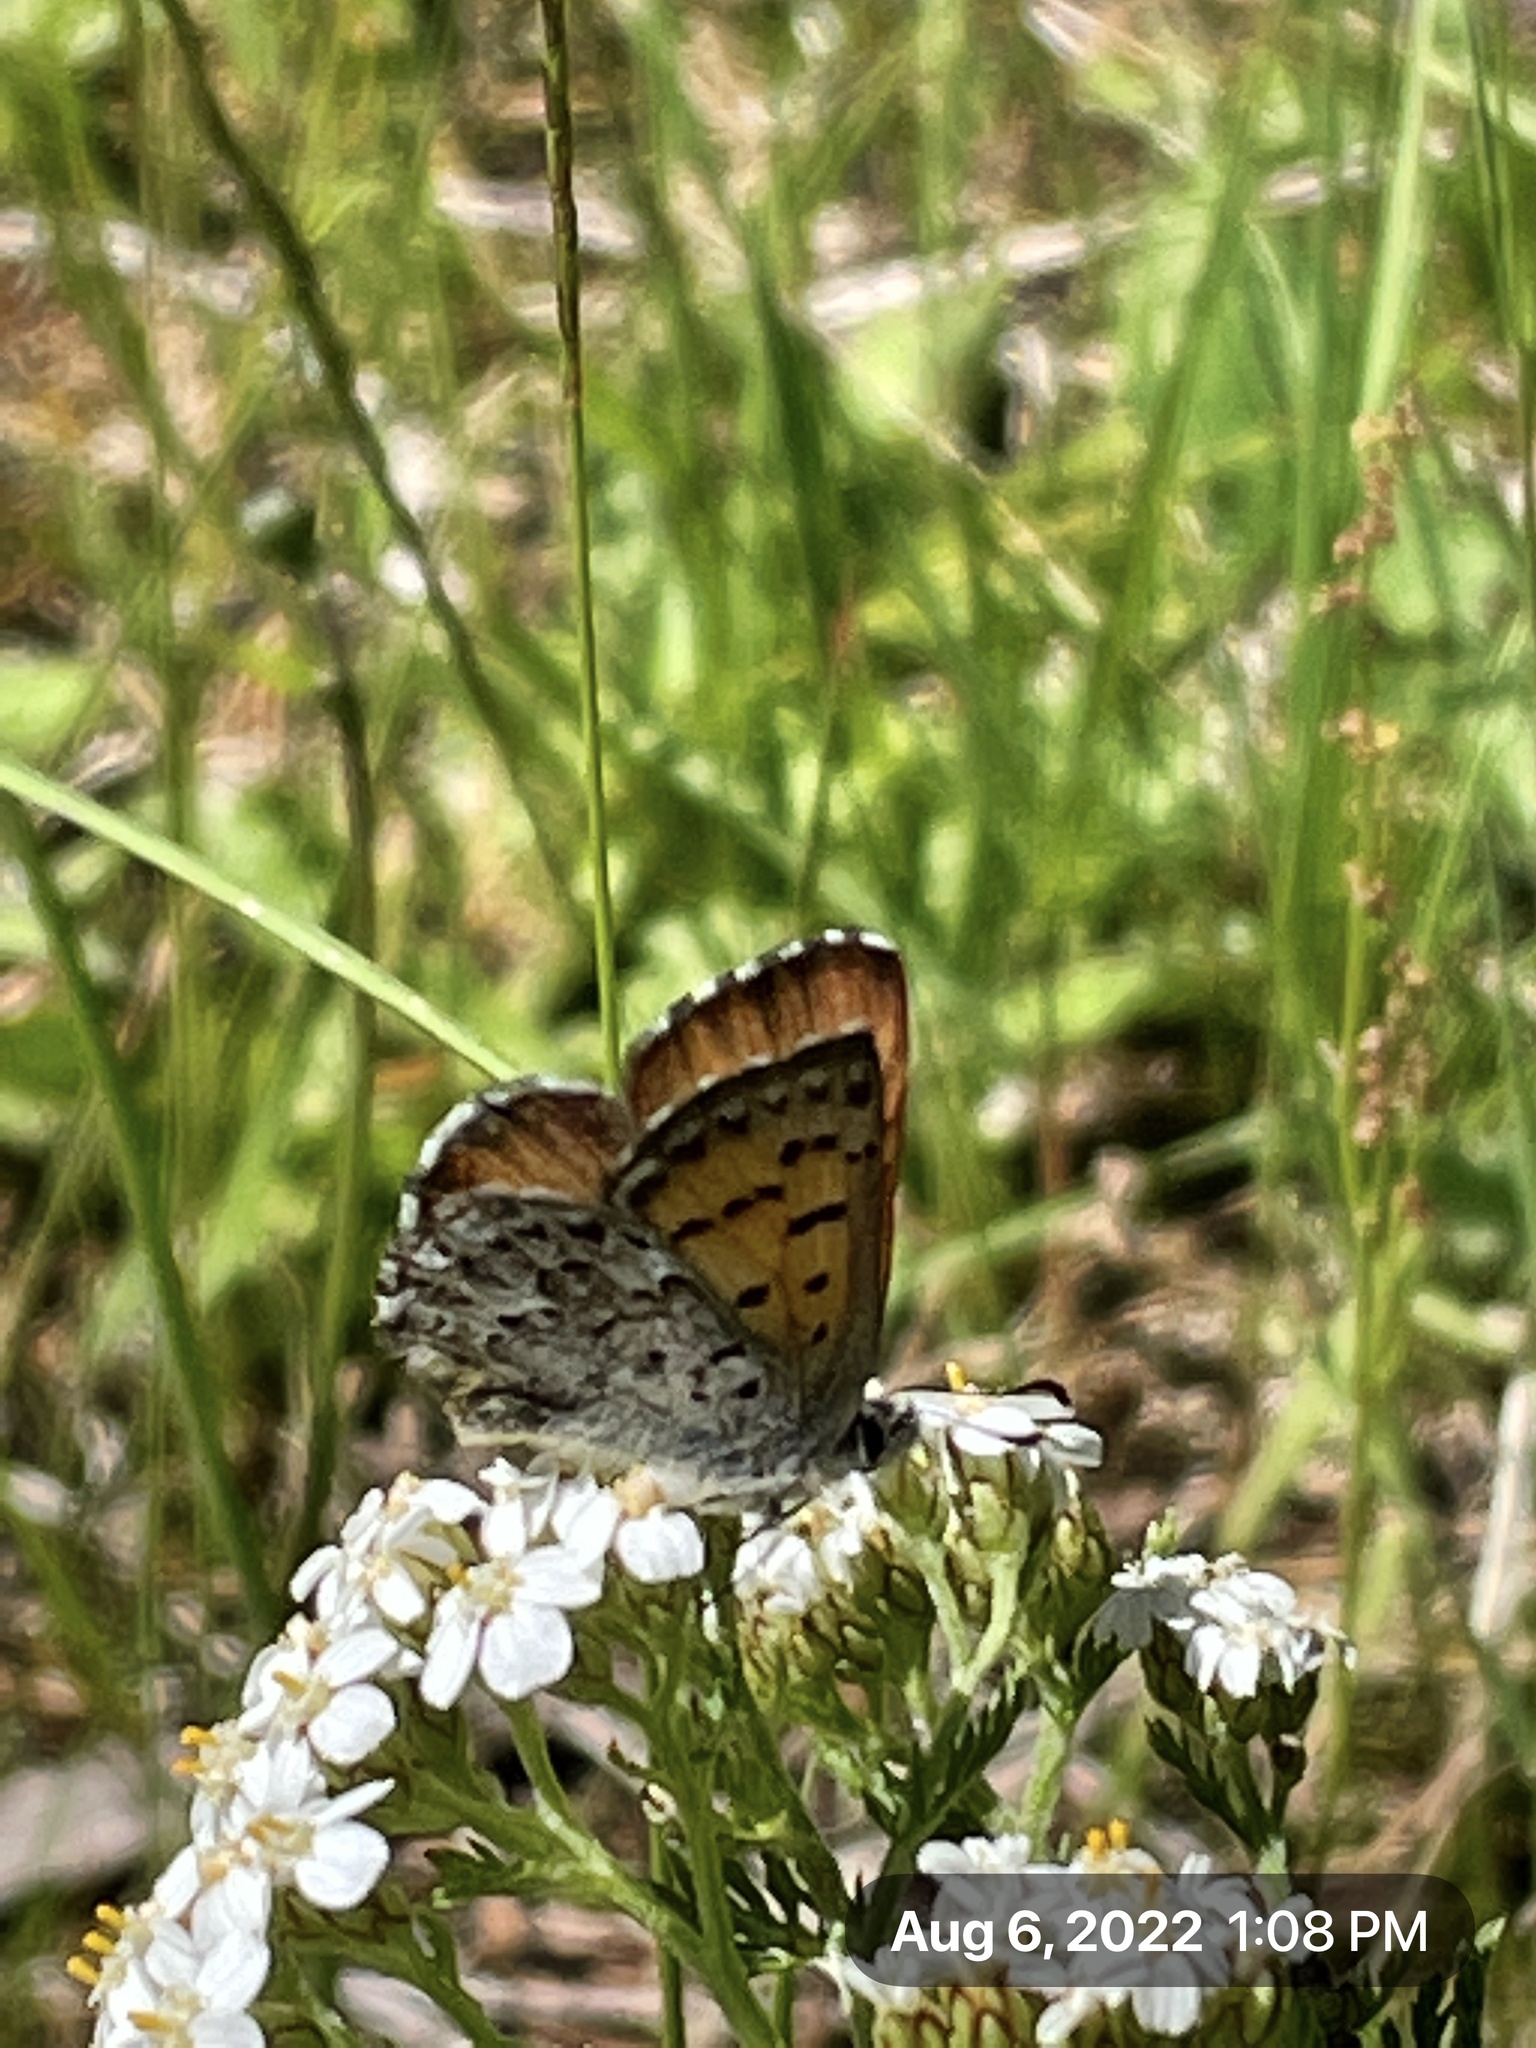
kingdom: Animalia
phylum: Arthropoda
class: Insecta
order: Lepidoptera
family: Lycaenidae
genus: Tharsalea
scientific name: Tharsalea mariposa
